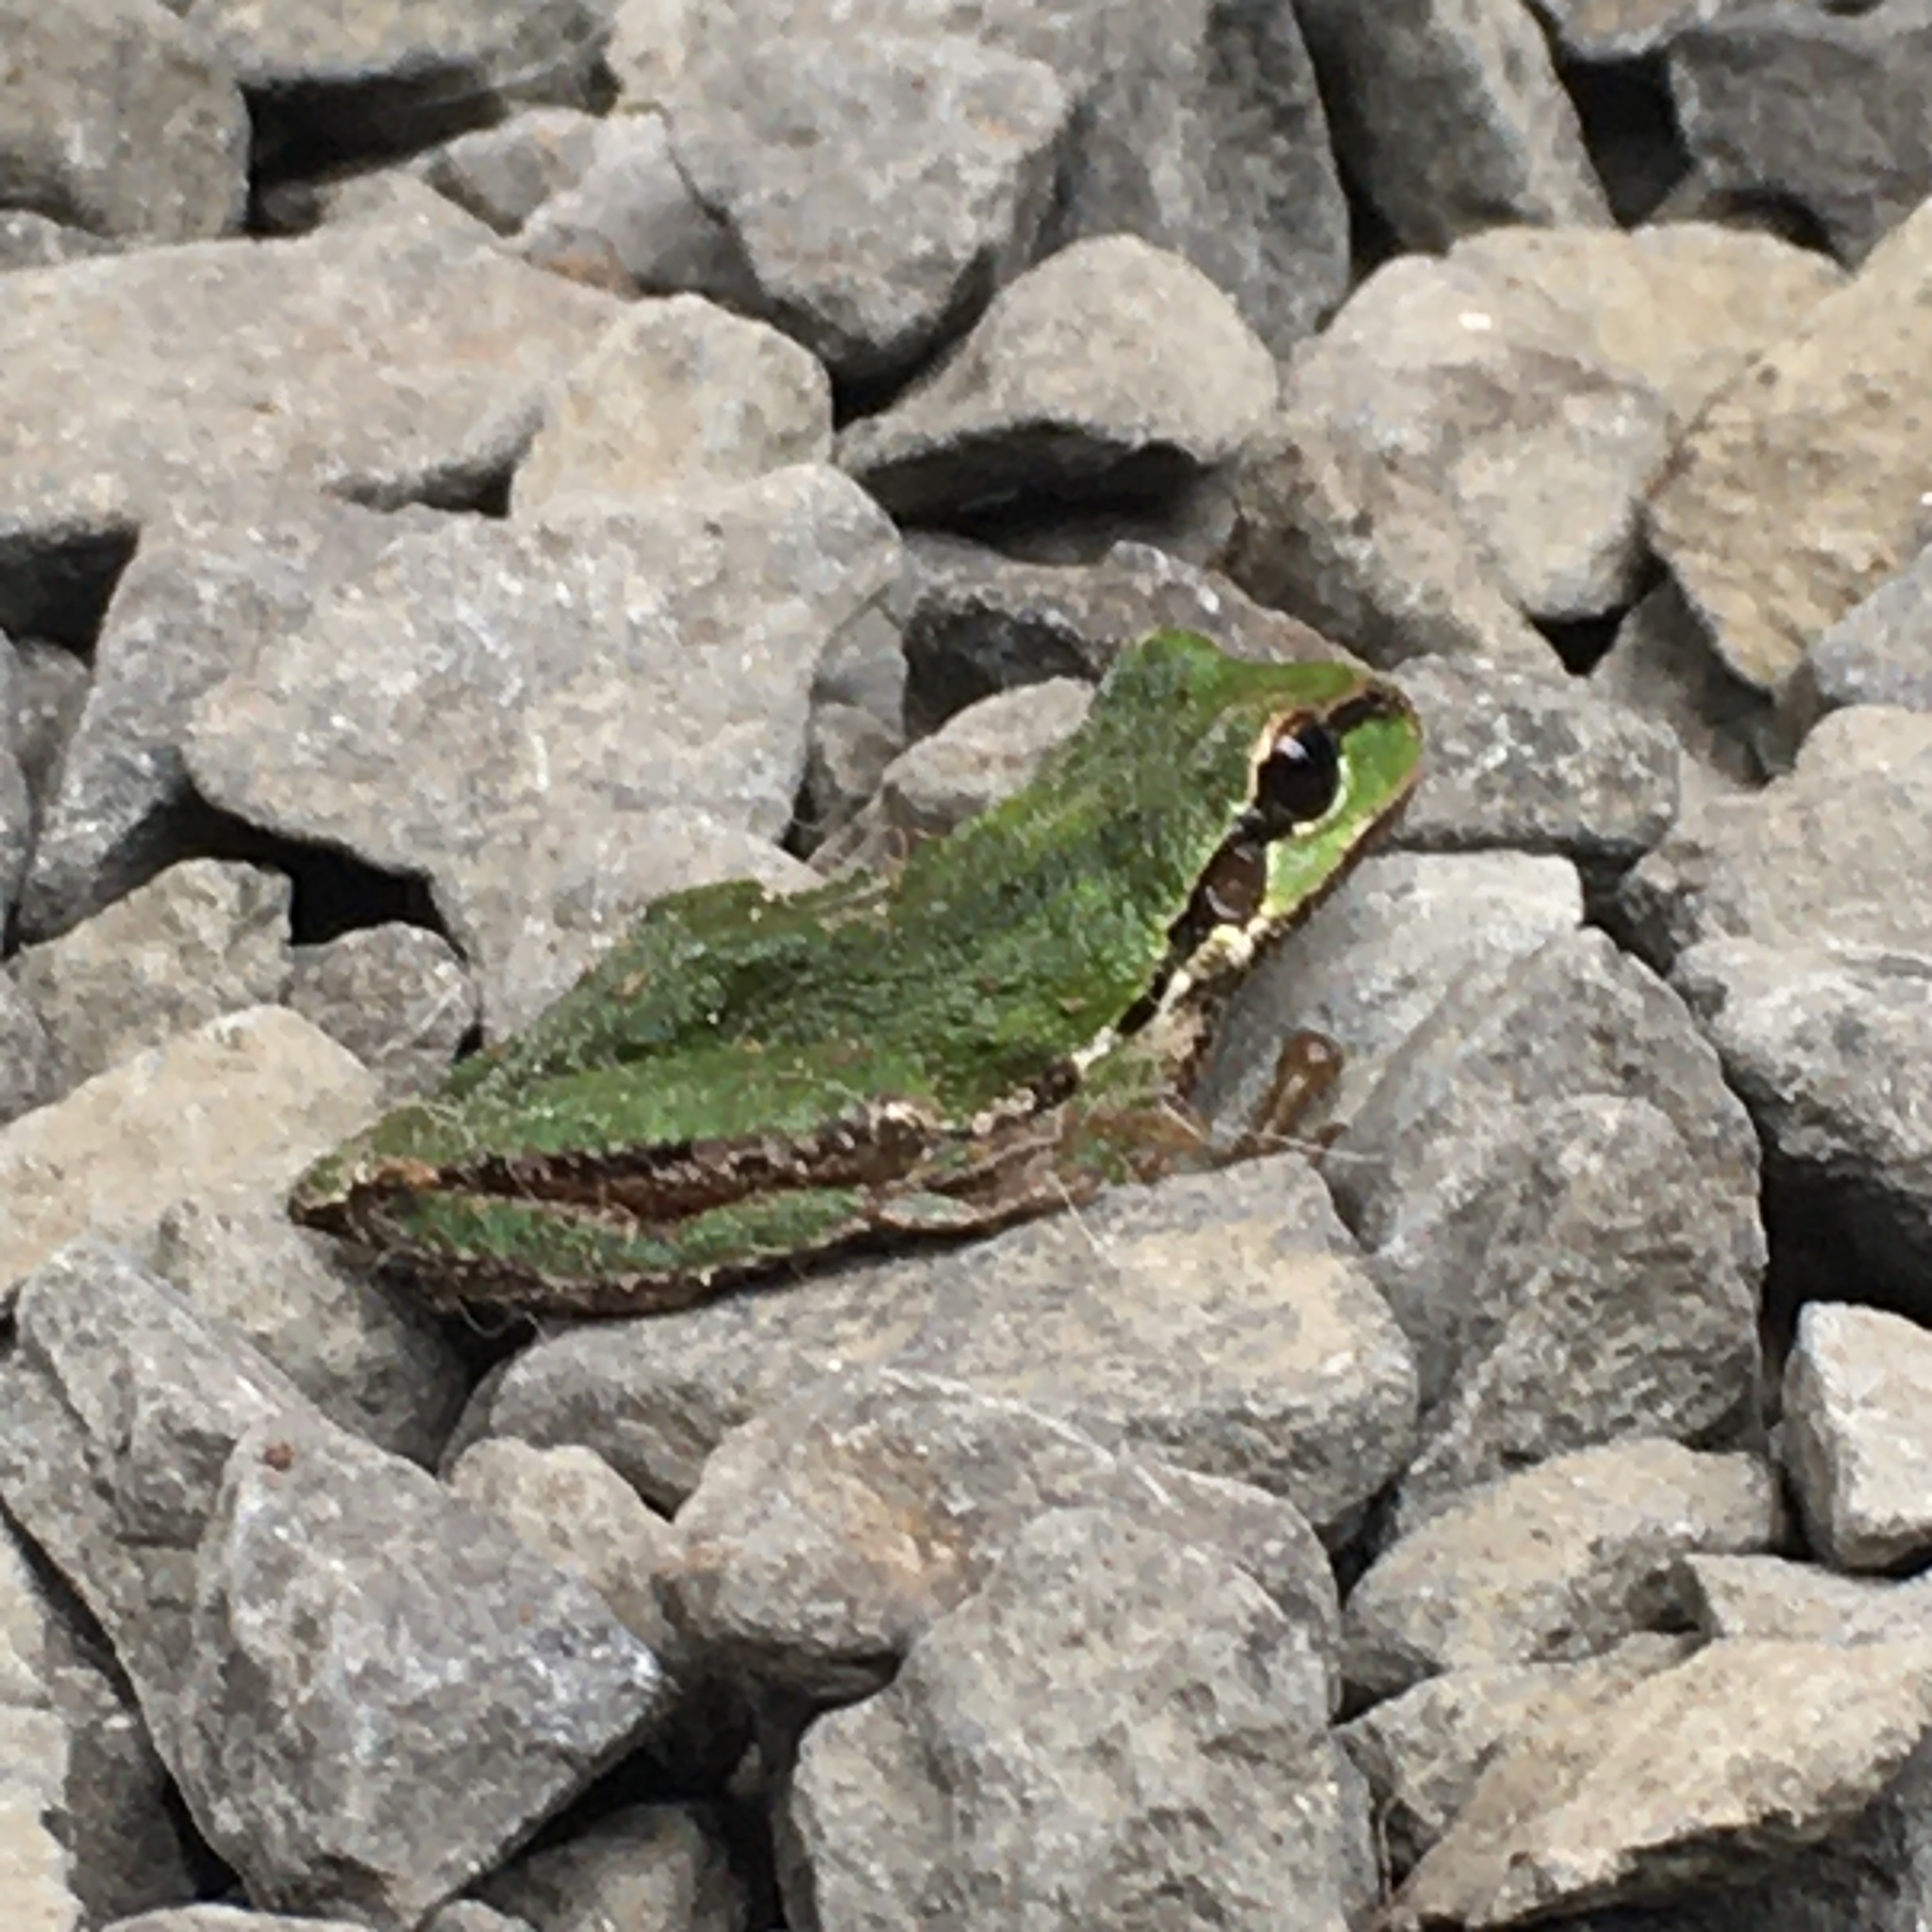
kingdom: Animalia
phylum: Chordata
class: Amphibia
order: Anura
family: Hylidae
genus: Pseudacris
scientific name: Pseudacris regilla
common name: Pacific chorus frog
